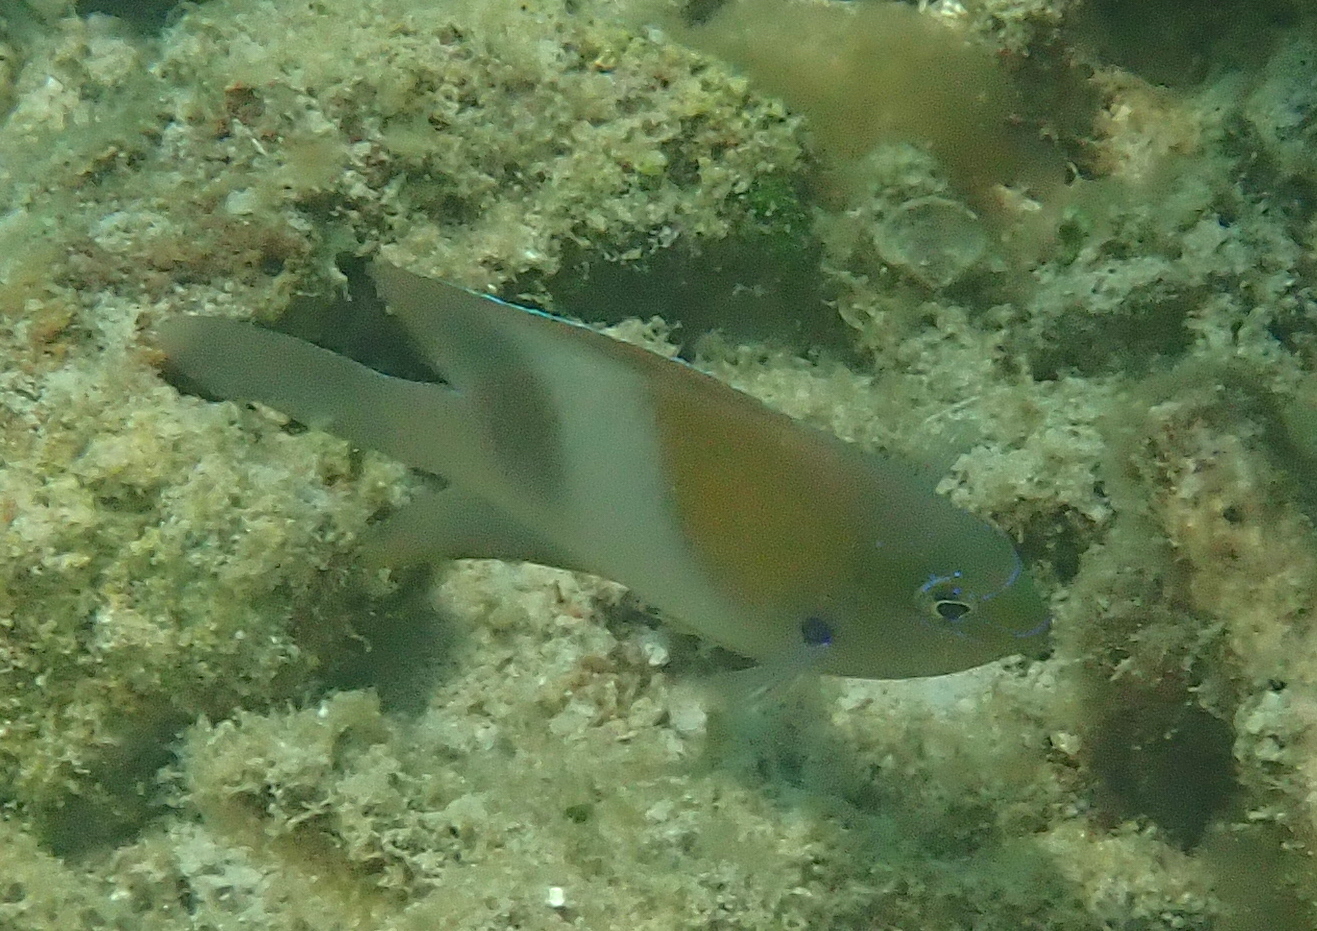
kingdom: Animalia
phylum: Chordata
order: Perciformes
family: Pomacentridae
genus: Dischistodus
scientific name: Dischistodus prosopotaenia
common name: Honey-head damsel
